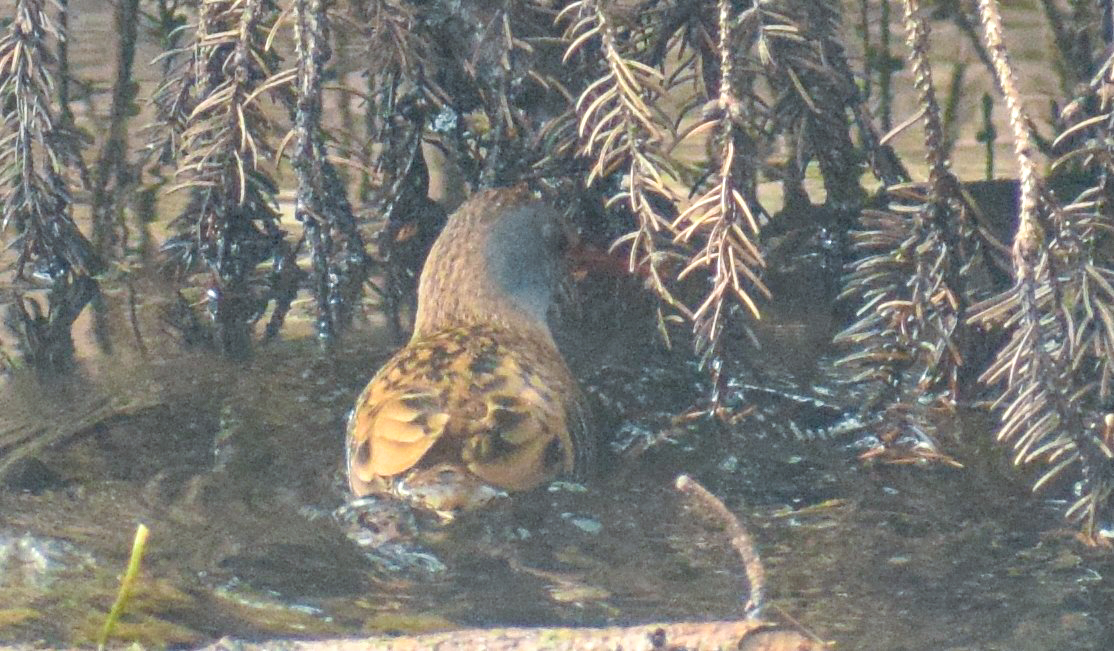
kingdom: Animalia
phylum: Chordata
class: Aves
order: Gruiformes
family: Rallidae
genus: Rallus
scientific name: Rallus aquaticus
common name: Water rail
